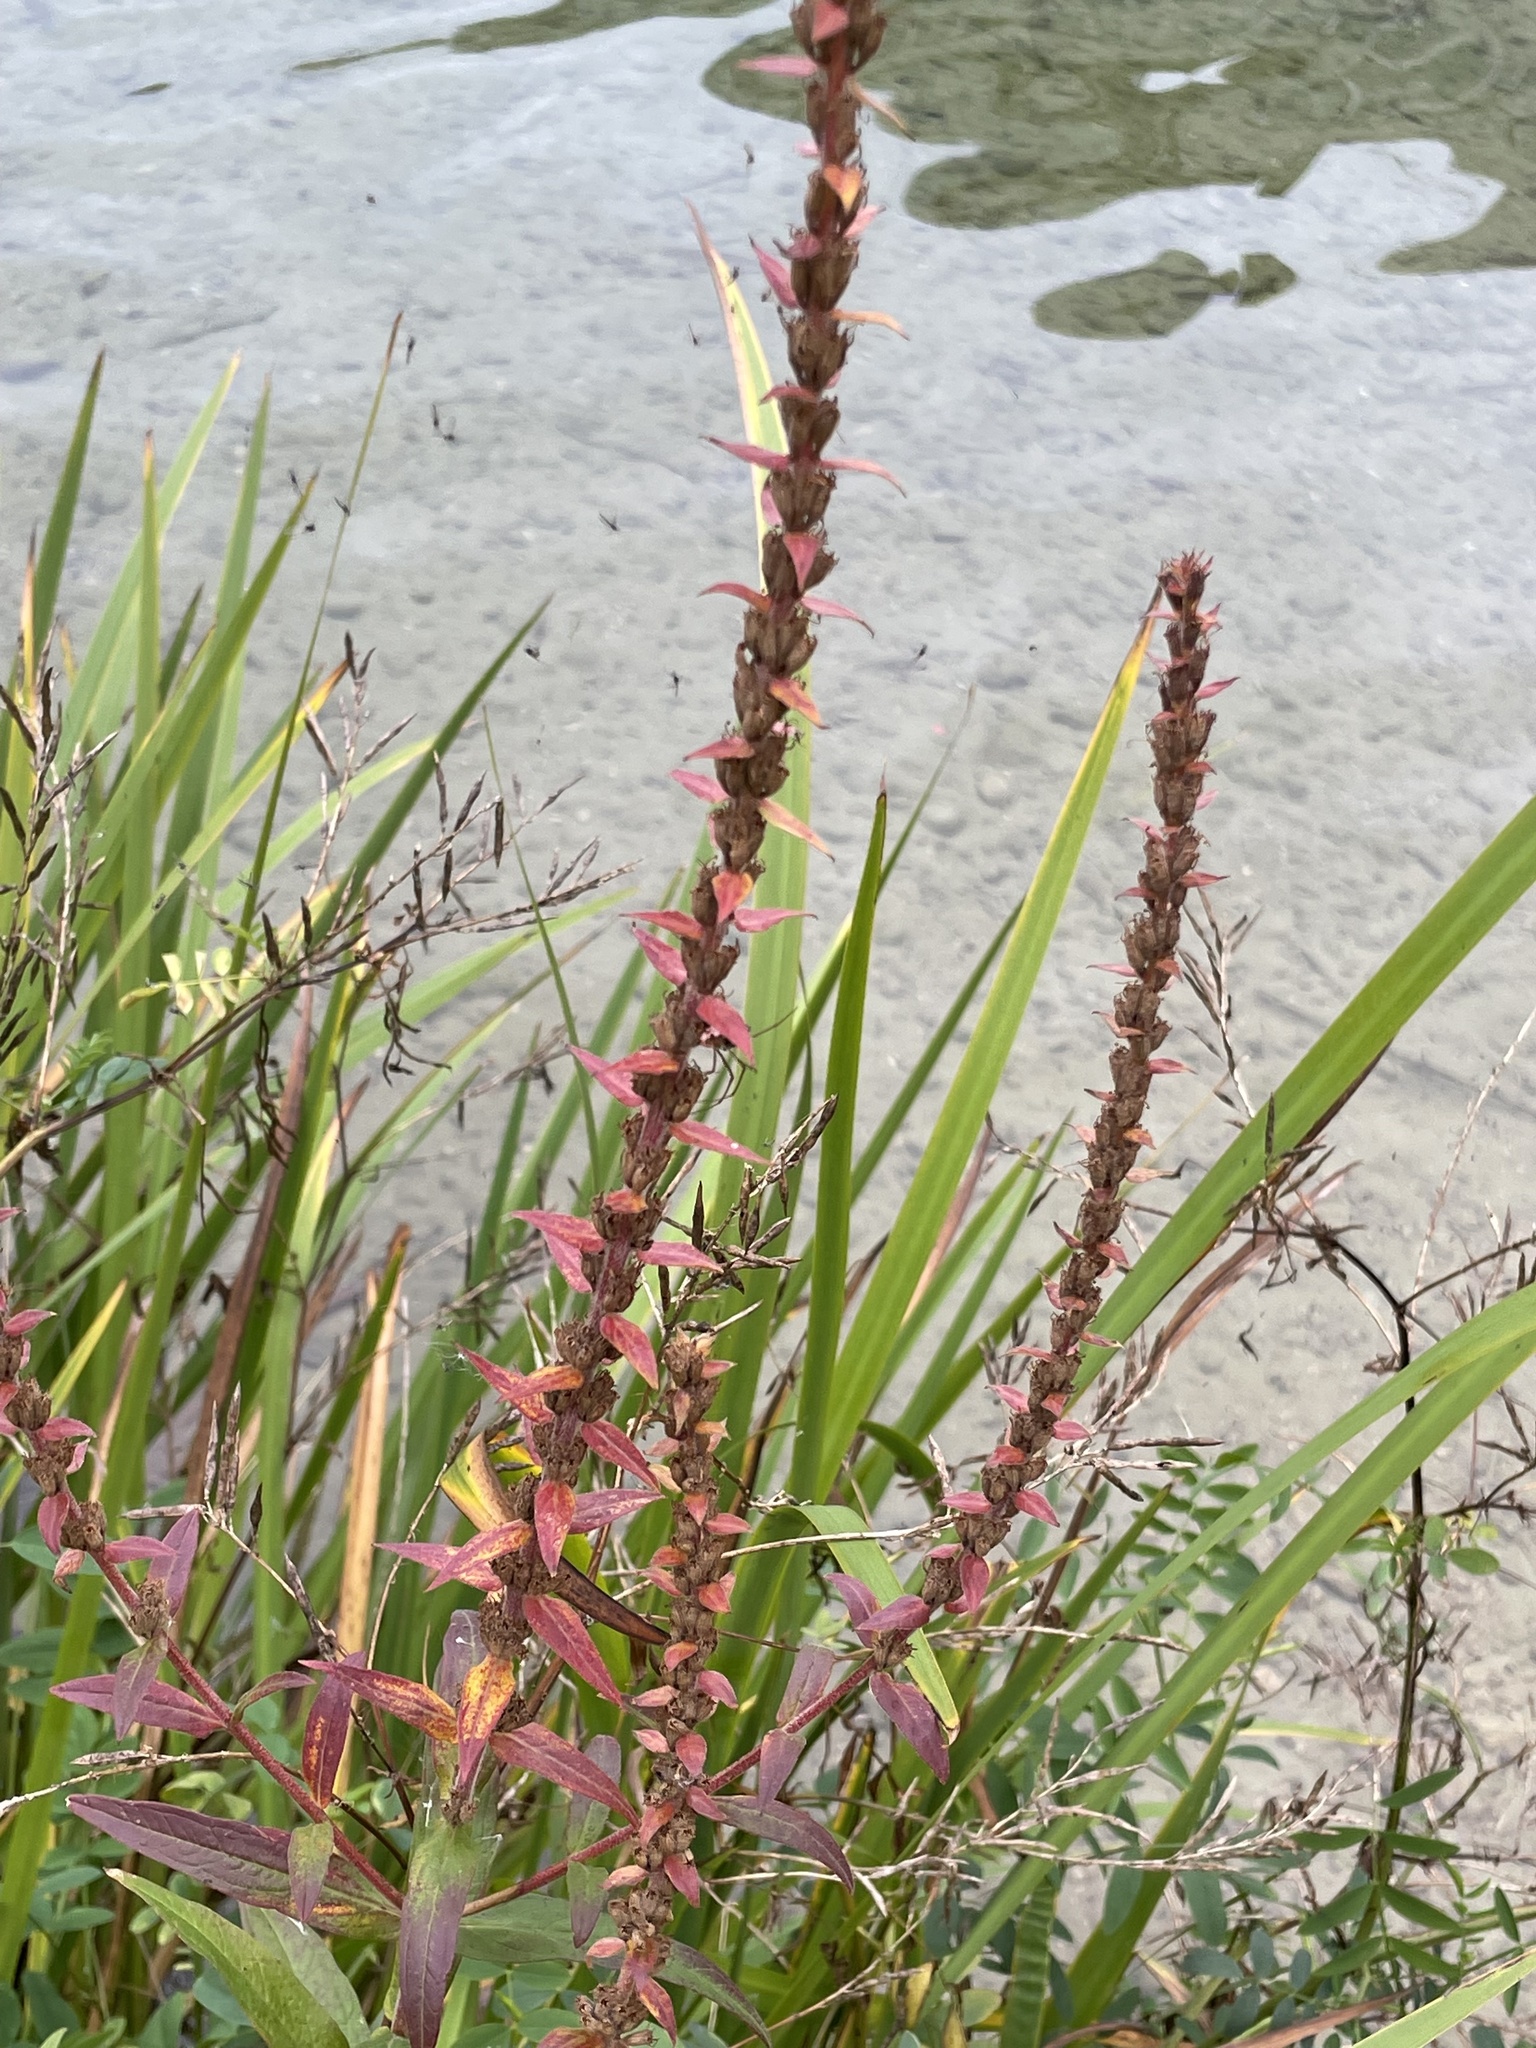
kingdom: Plantae
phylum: Tracheophyta
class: Magnoliopsida
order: Myrtales
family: Lythraceae
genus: Lythrum
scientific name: Lythrum salicaria
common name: Purple loosestrife
